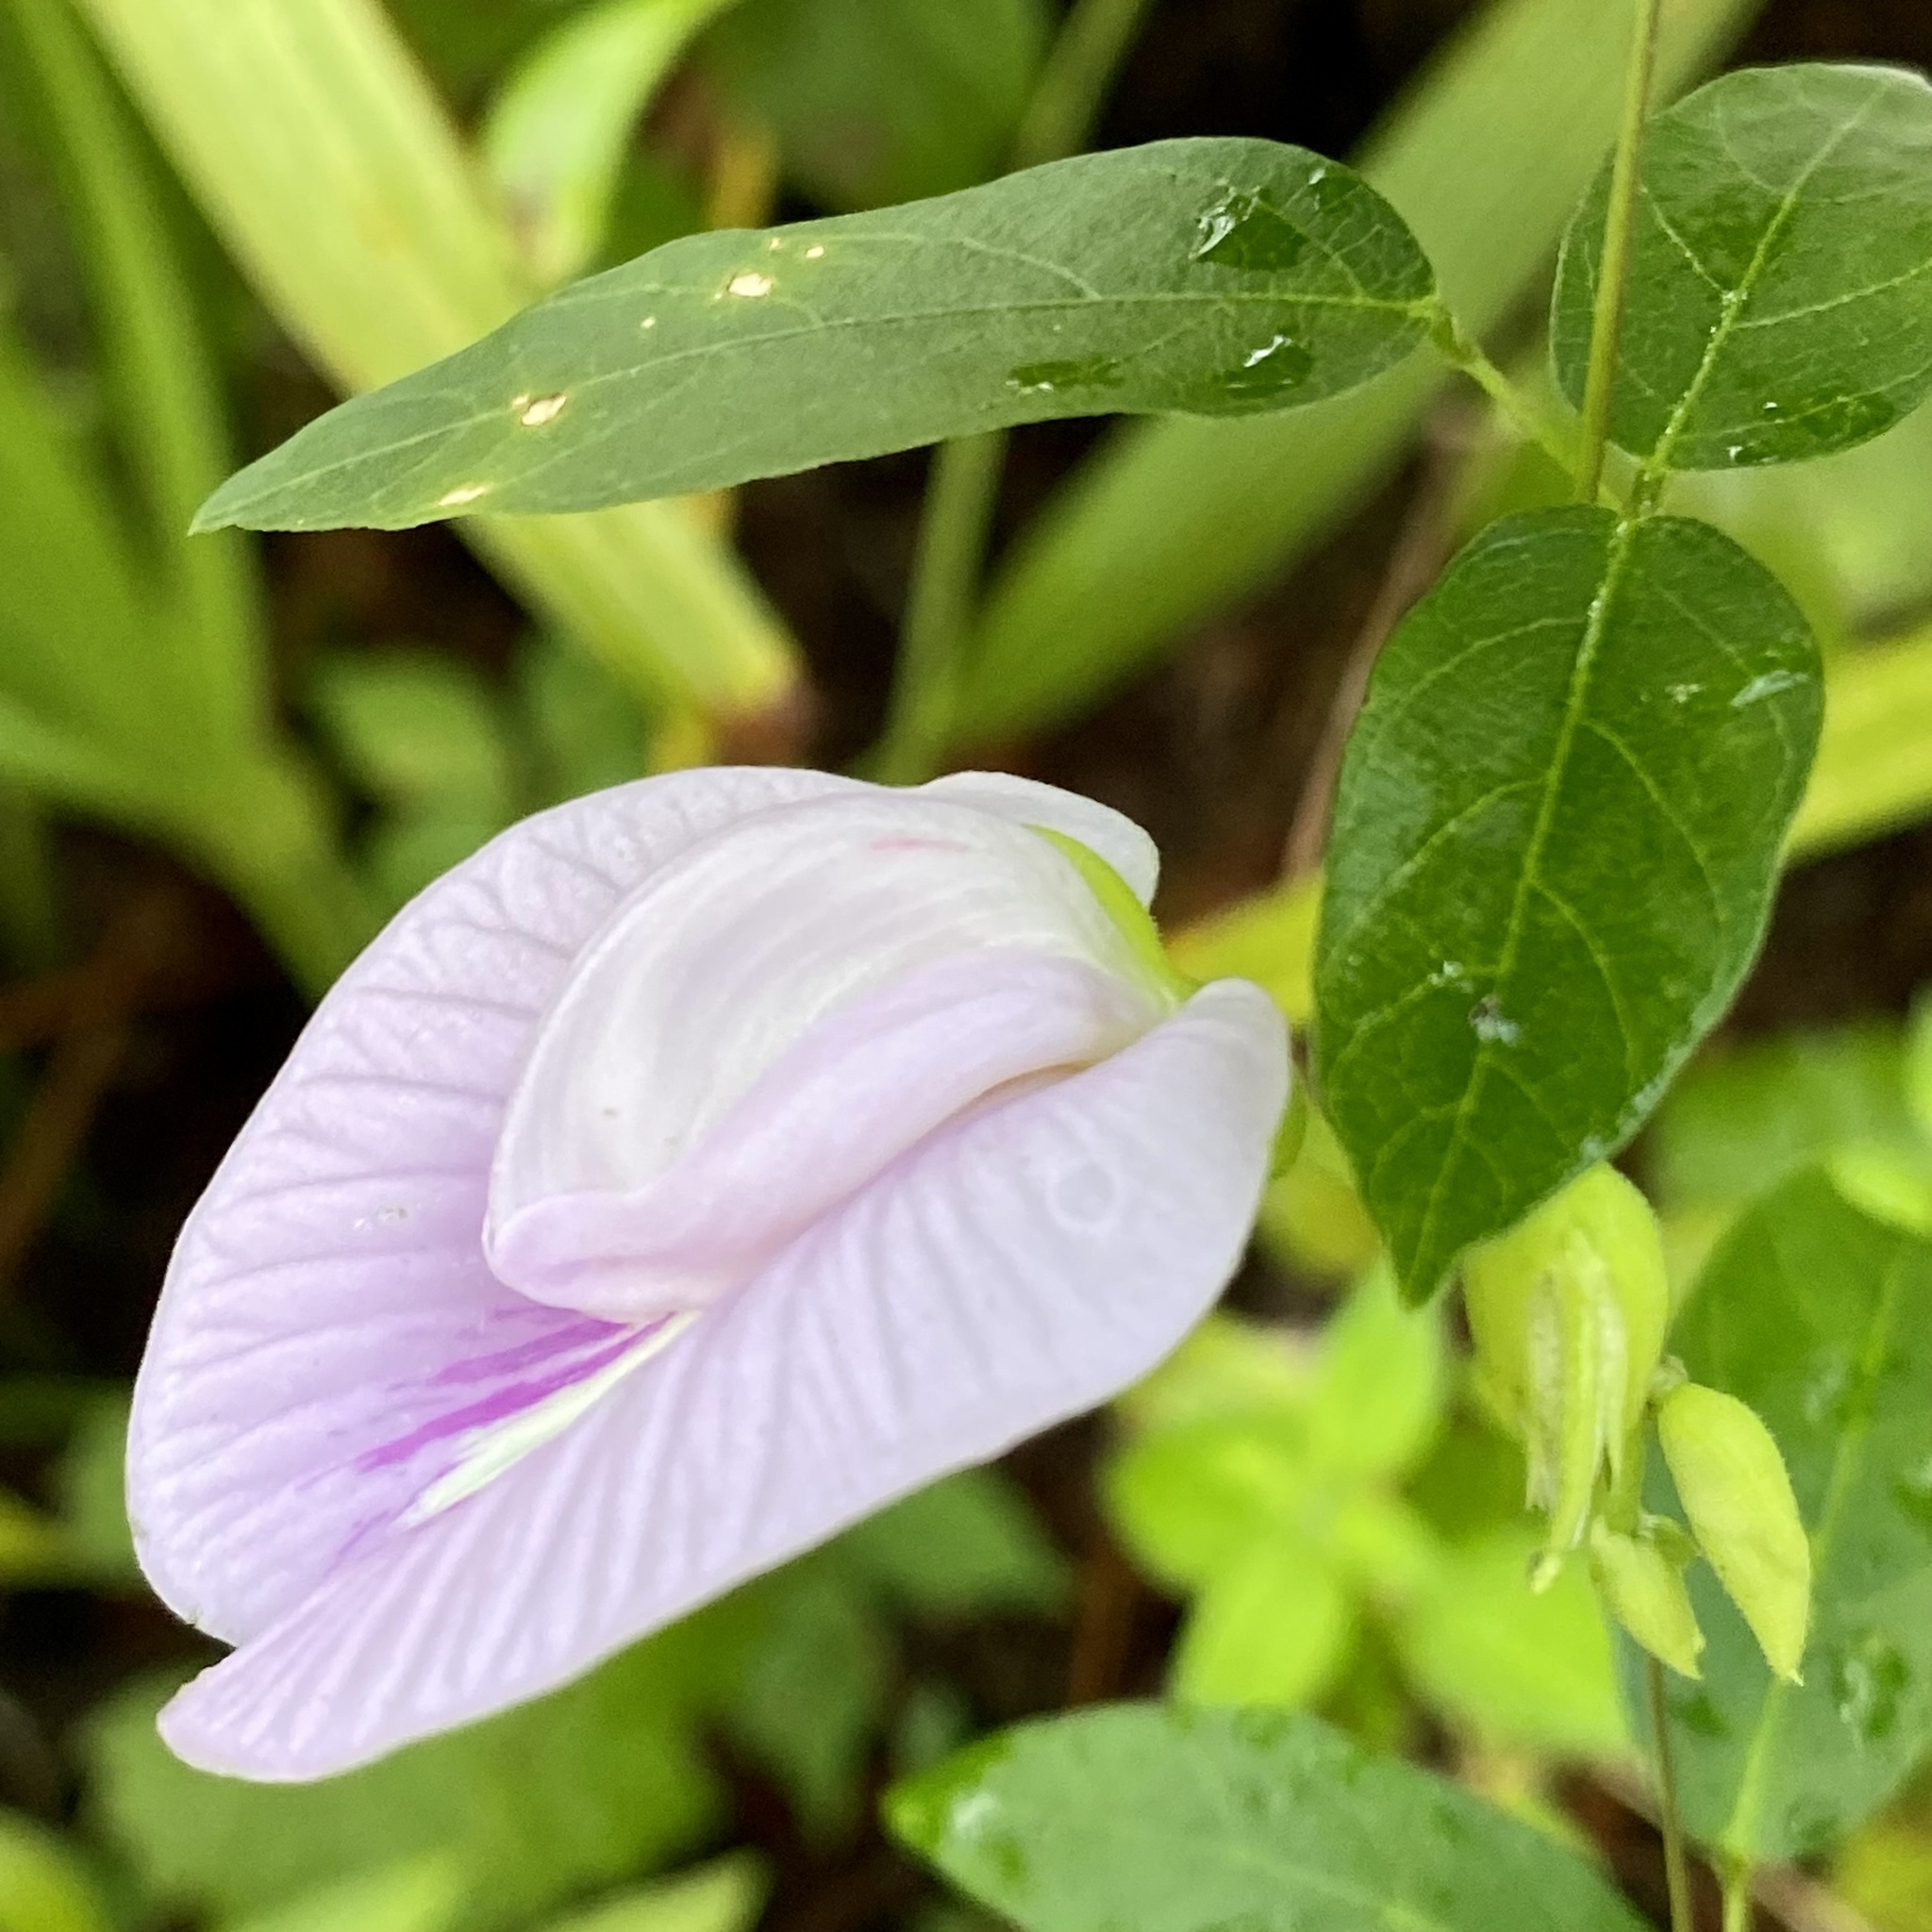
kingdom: Plantae
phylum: Tracheophyta
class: Magnoliopsida
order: Fabales
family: Fabaceae
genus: Centrosema
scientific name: Centrosema arenicola
